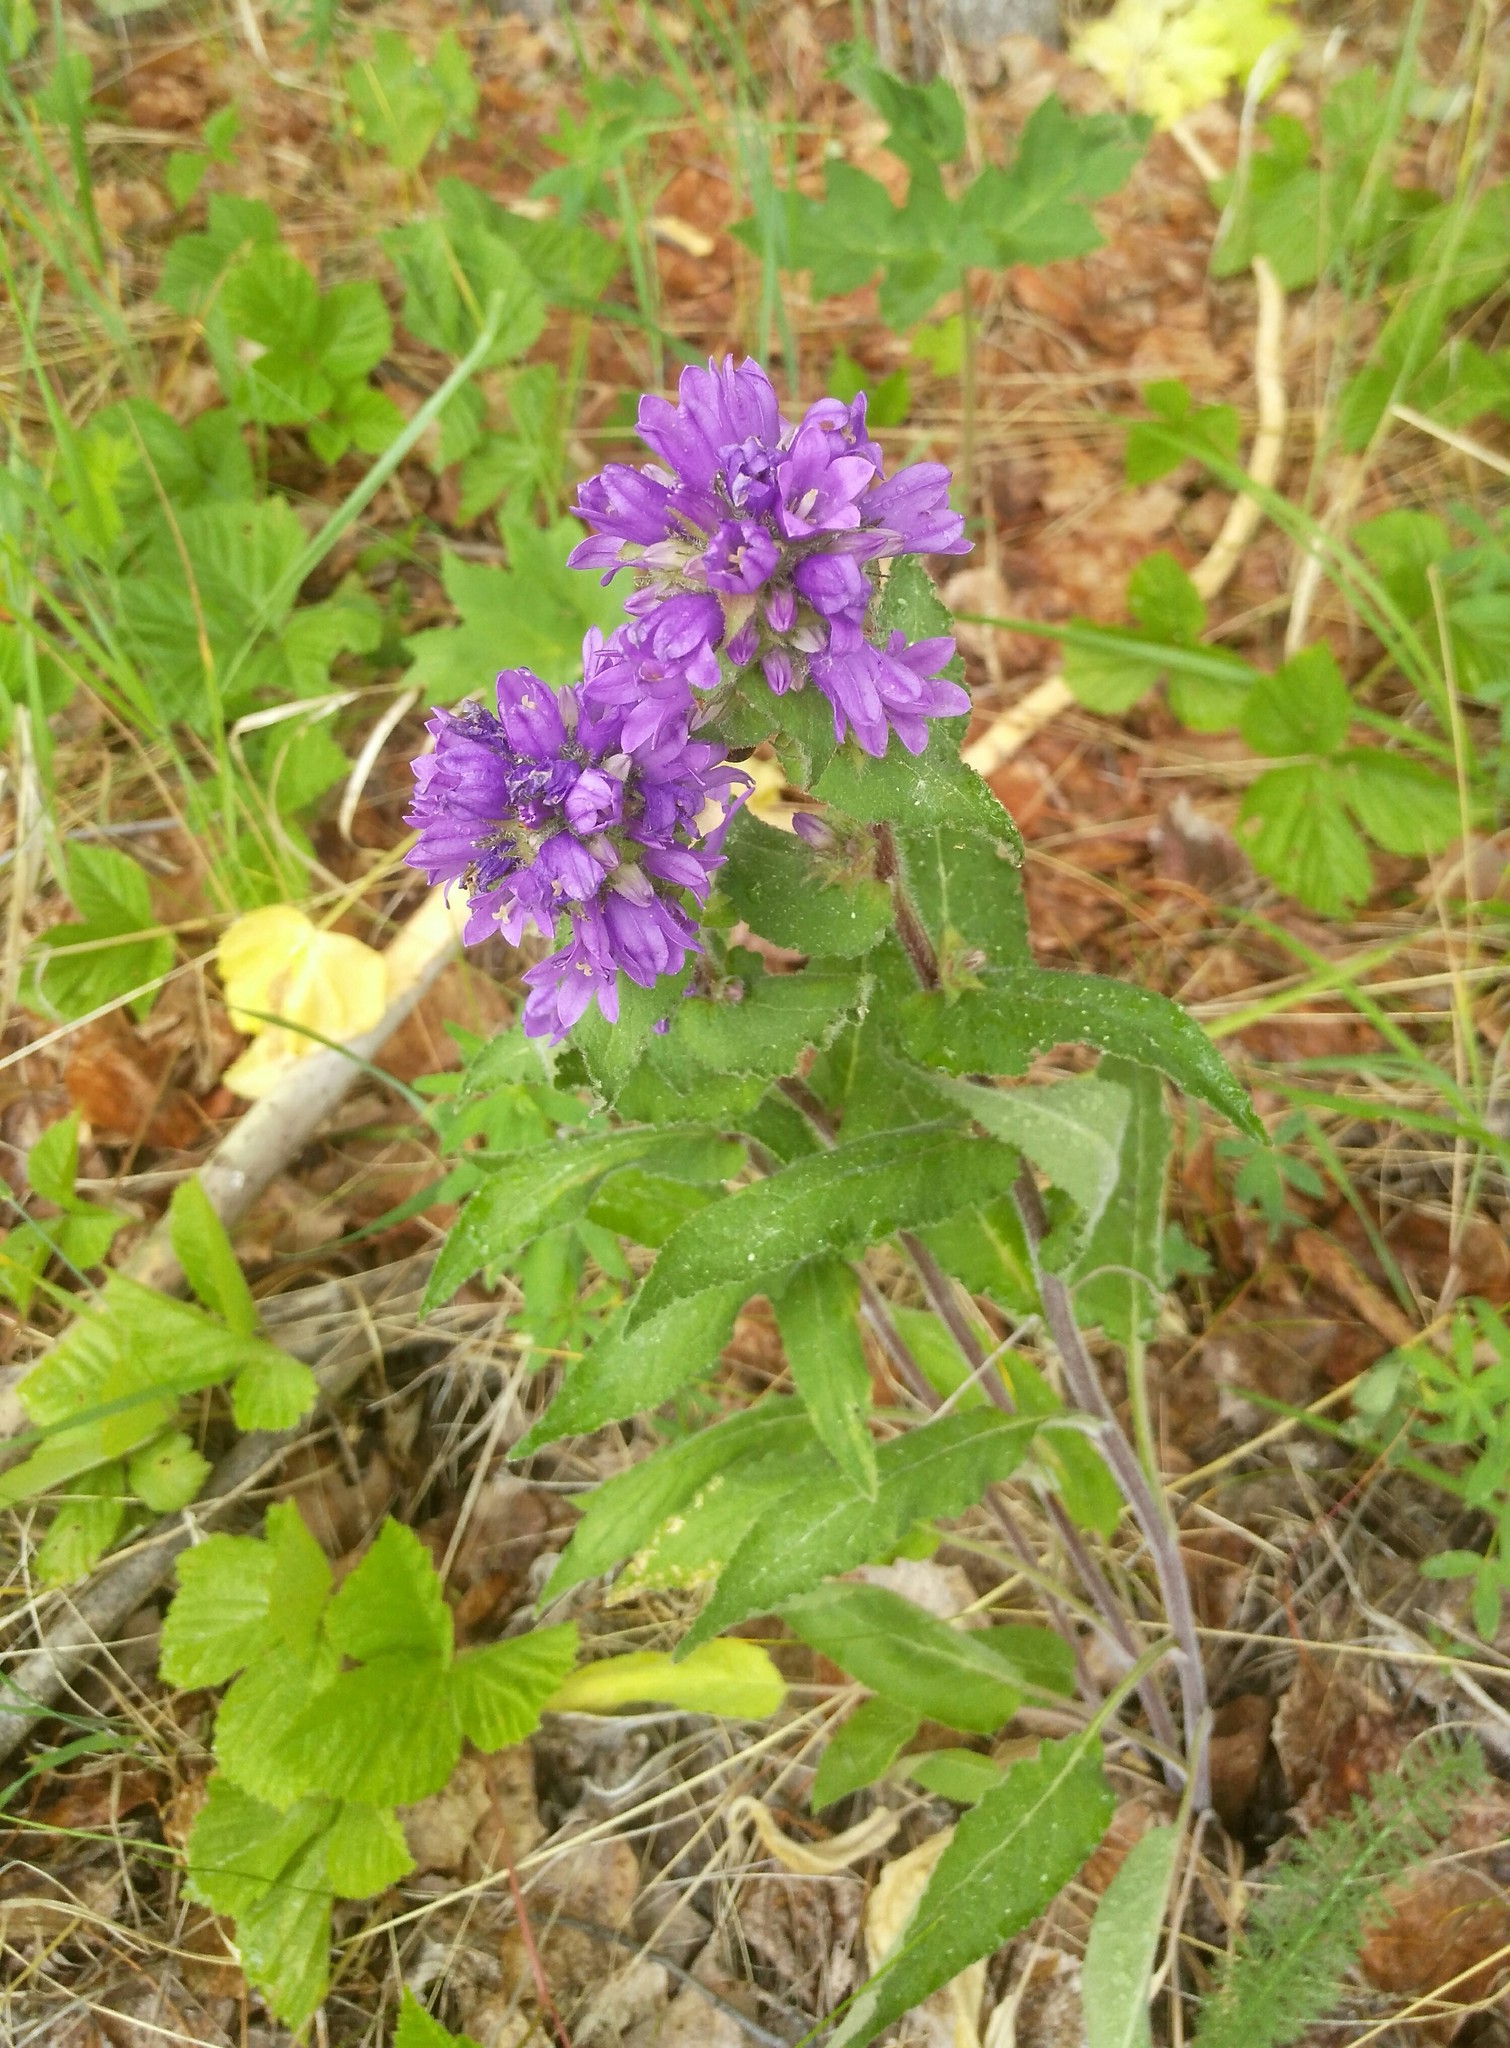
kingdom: Plantae
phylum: Tracheophyta
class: Magnoliopsida
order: Asterales
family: Campanulaceae
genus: Campanula
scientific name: Campanula glomerata
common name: Clustered bellflower
